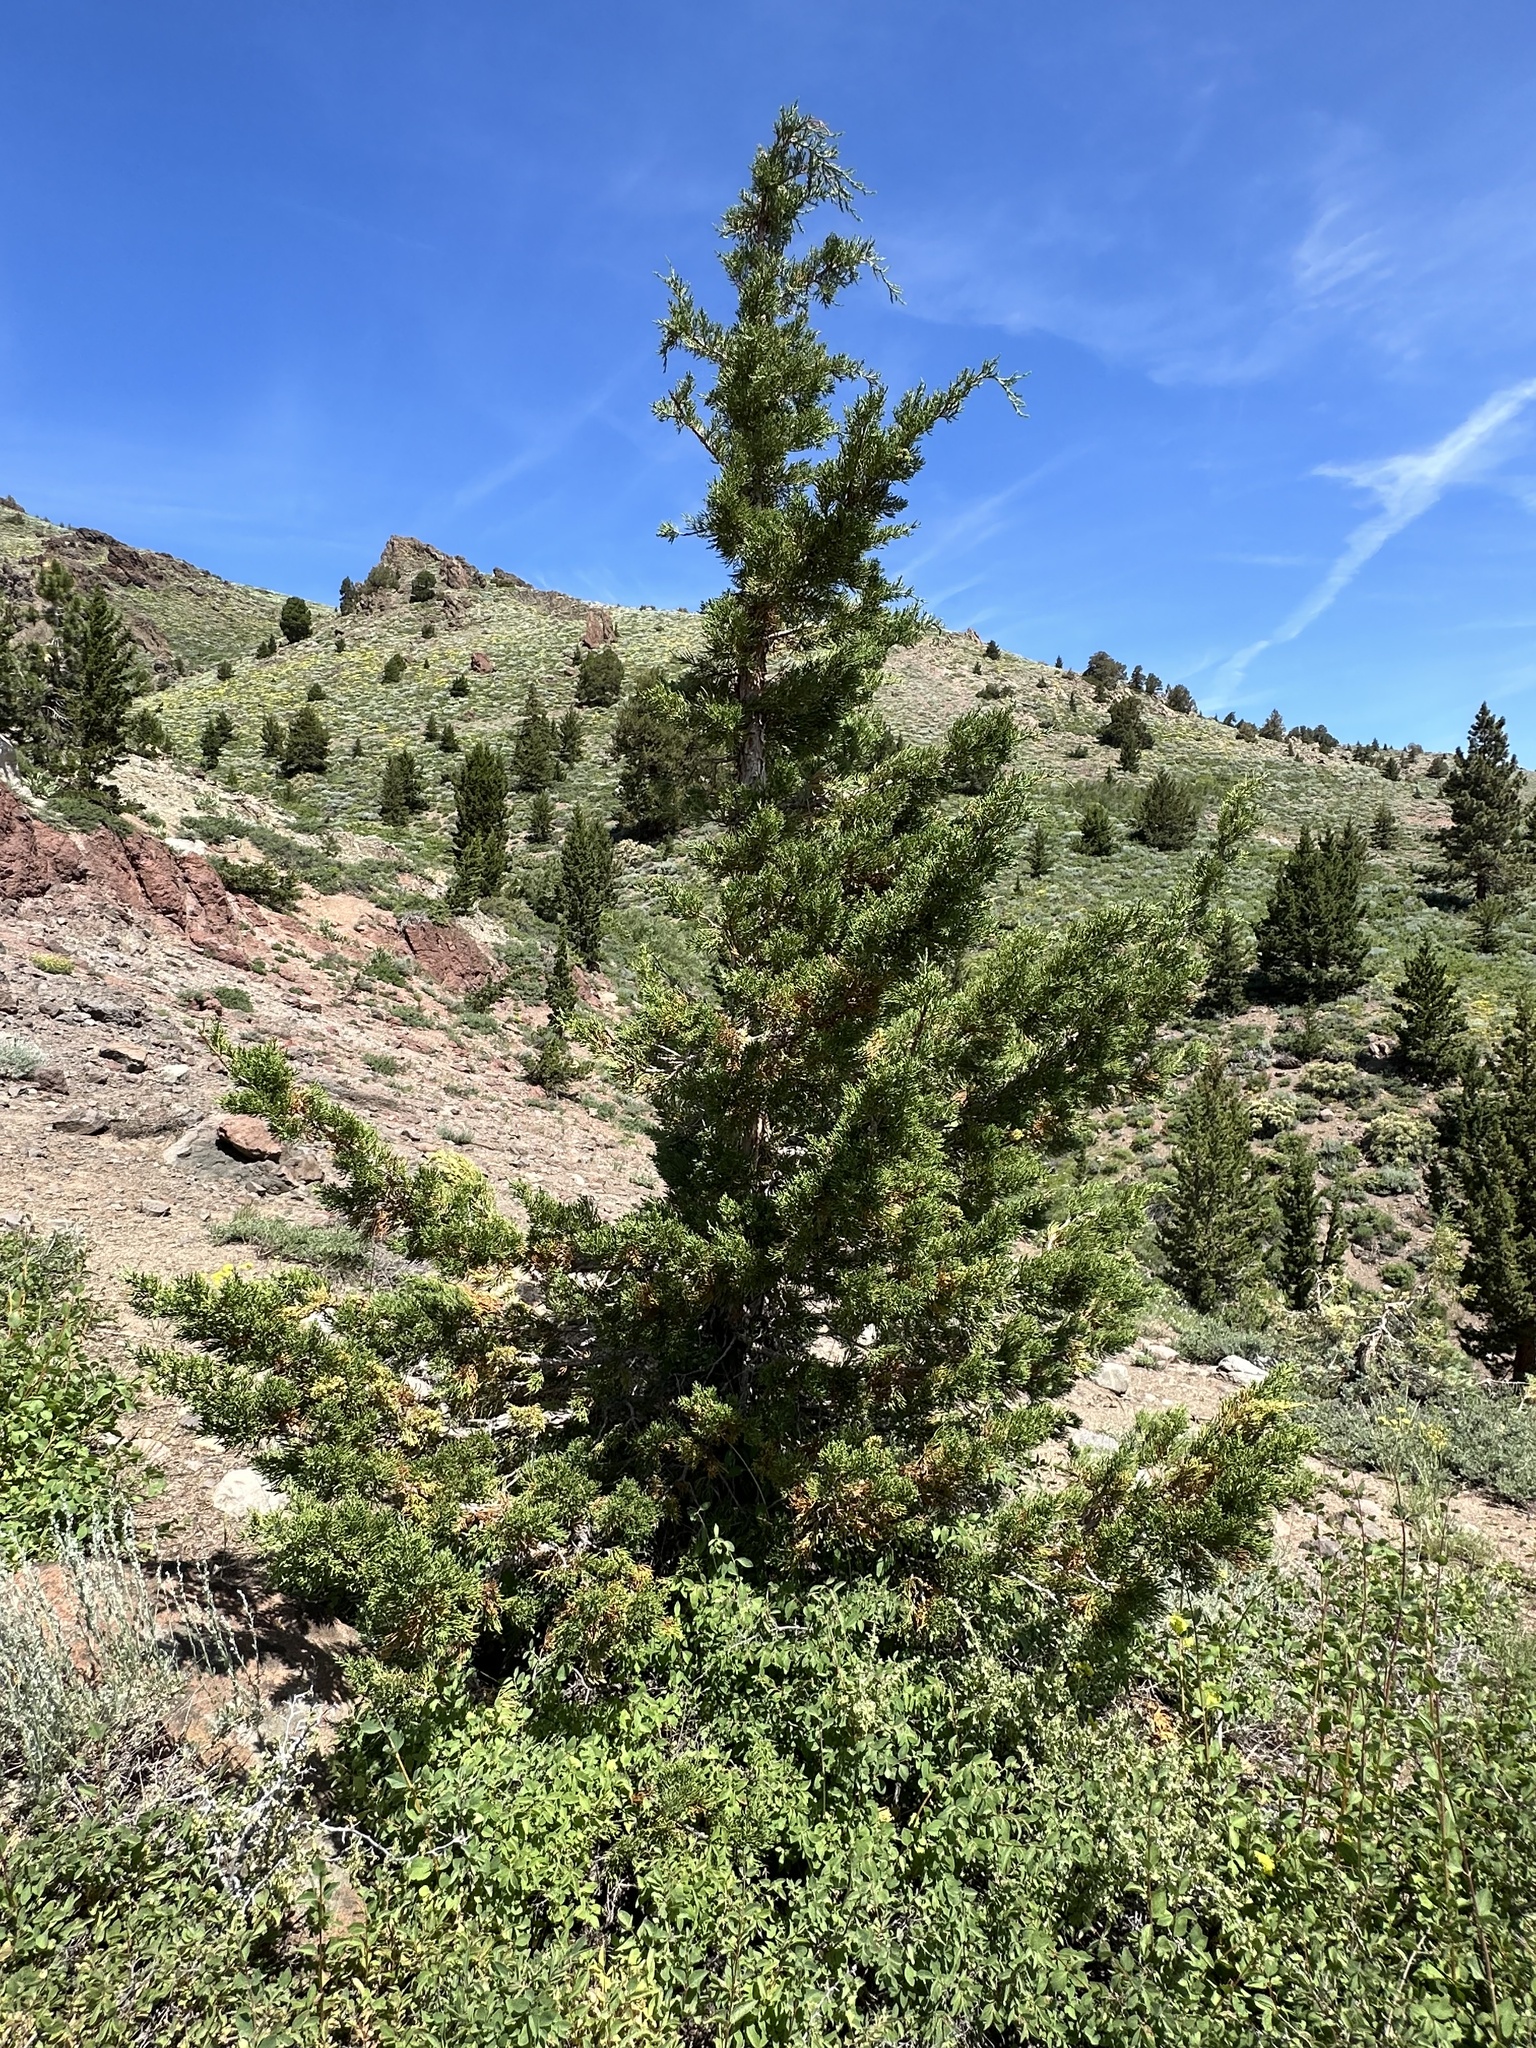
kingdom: Plantae
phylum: Tracheophyta
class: Pinopsida
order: Pinales
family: Cupressaceae
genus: Juniperus
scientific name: Juniperus occidentalis
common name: Western juniper
